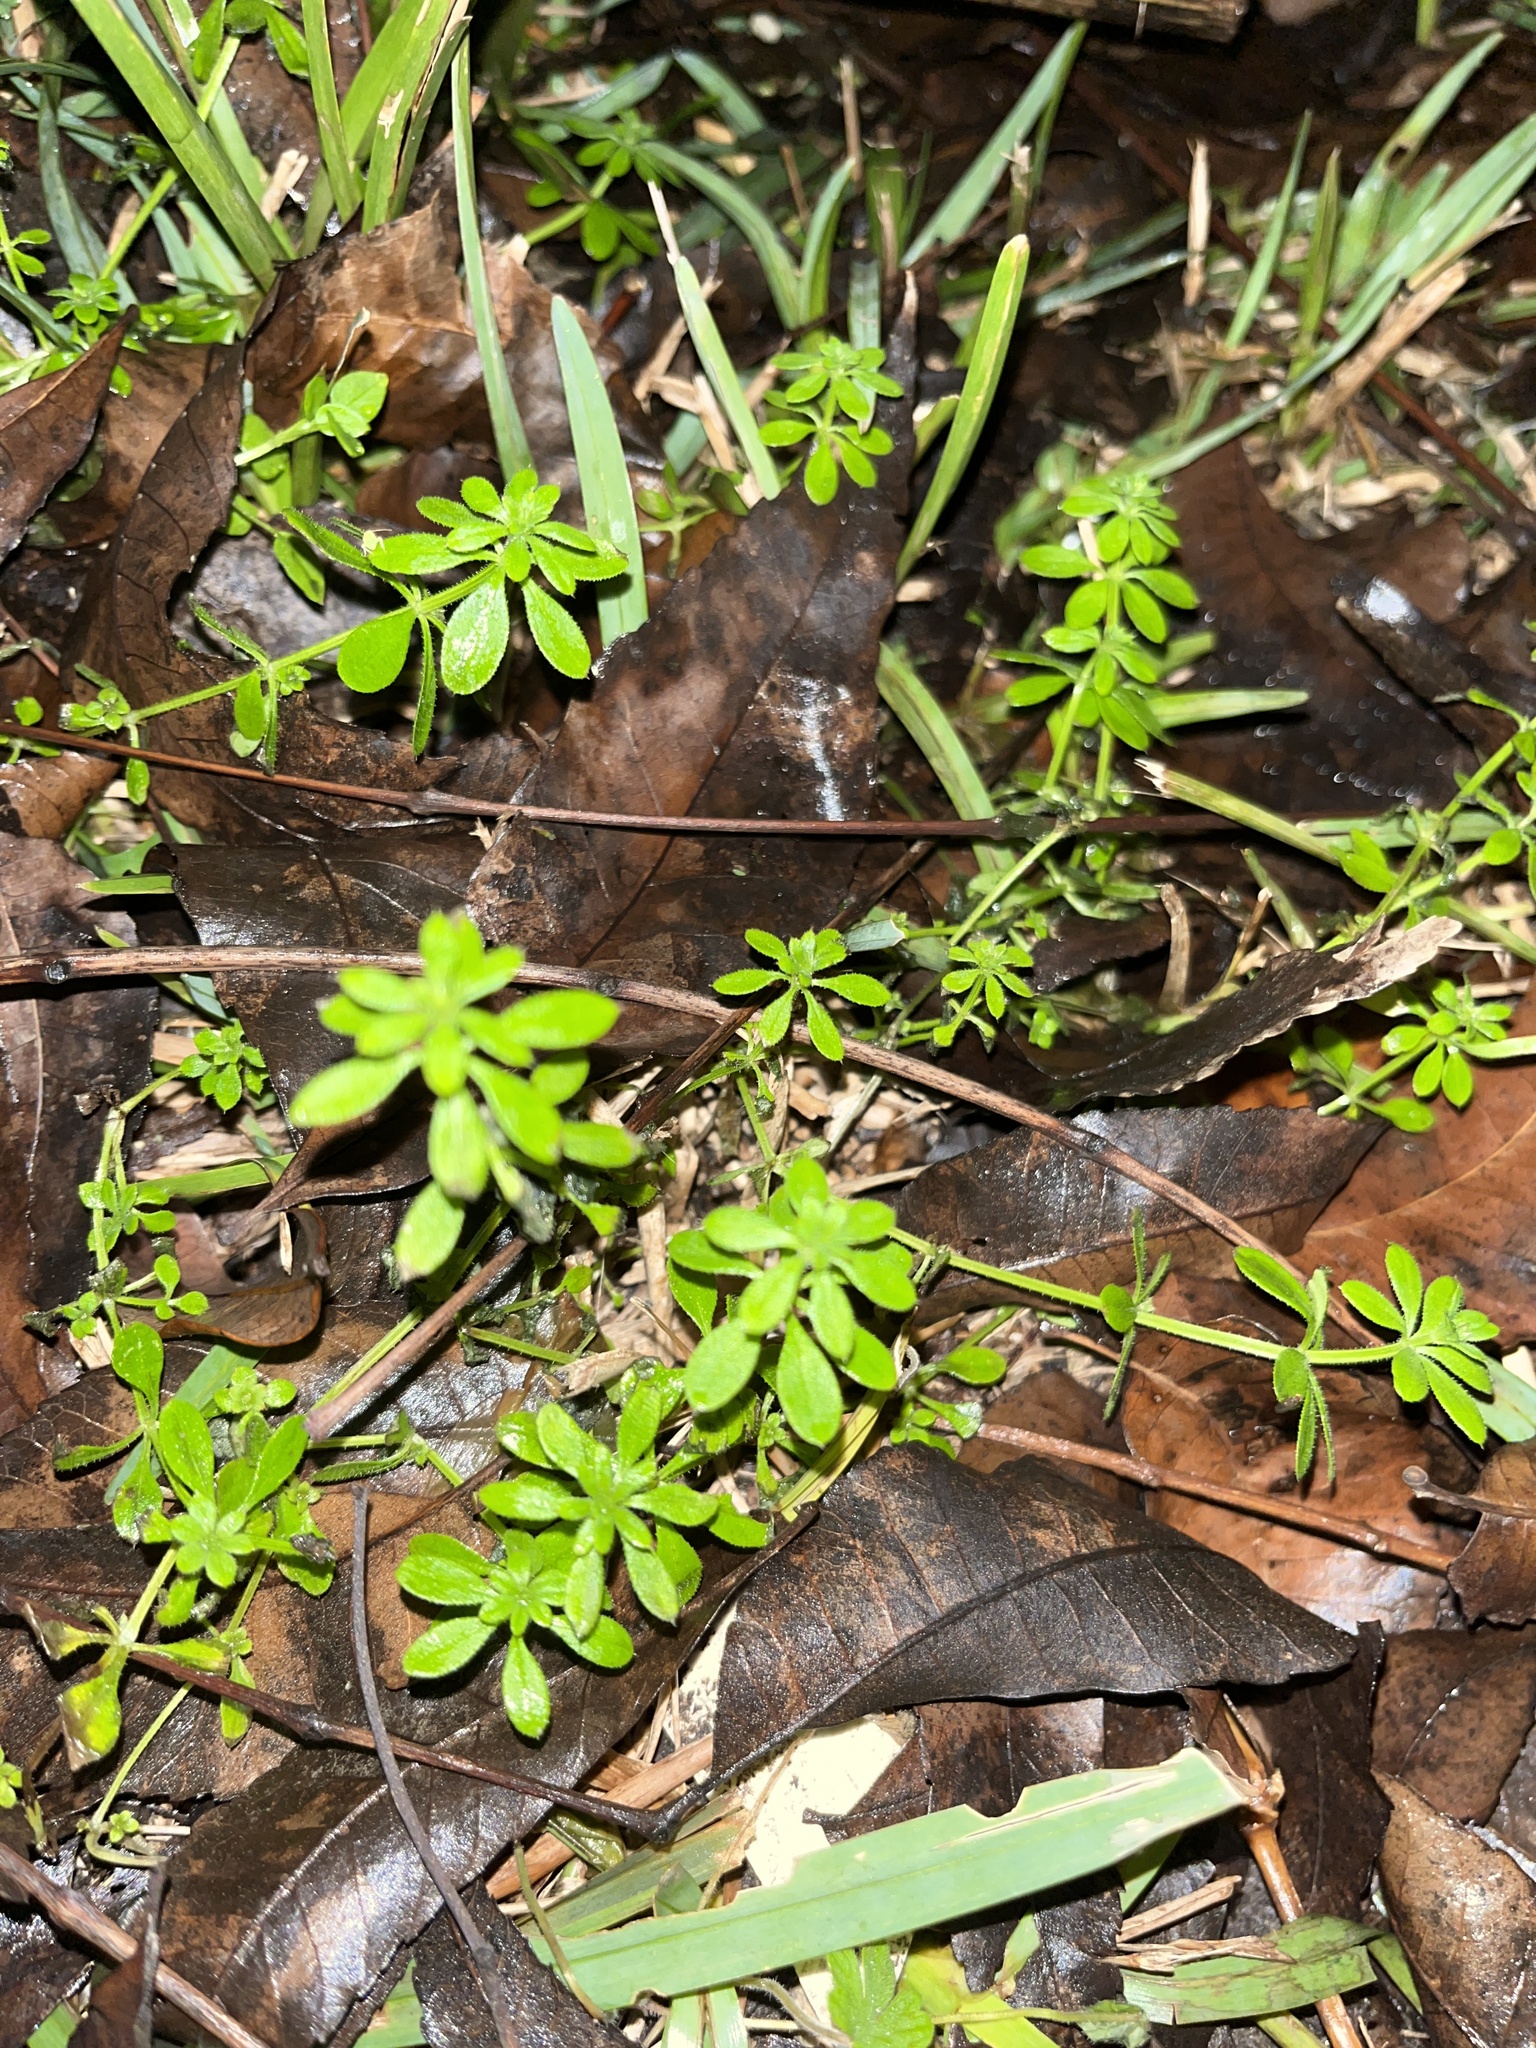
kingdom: Plantae
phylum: Tracheophyta
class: Magnoliopsida
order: Gentianales
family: Rubiaceae
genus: Galium
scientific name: Galium aparine
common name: Cleavers
